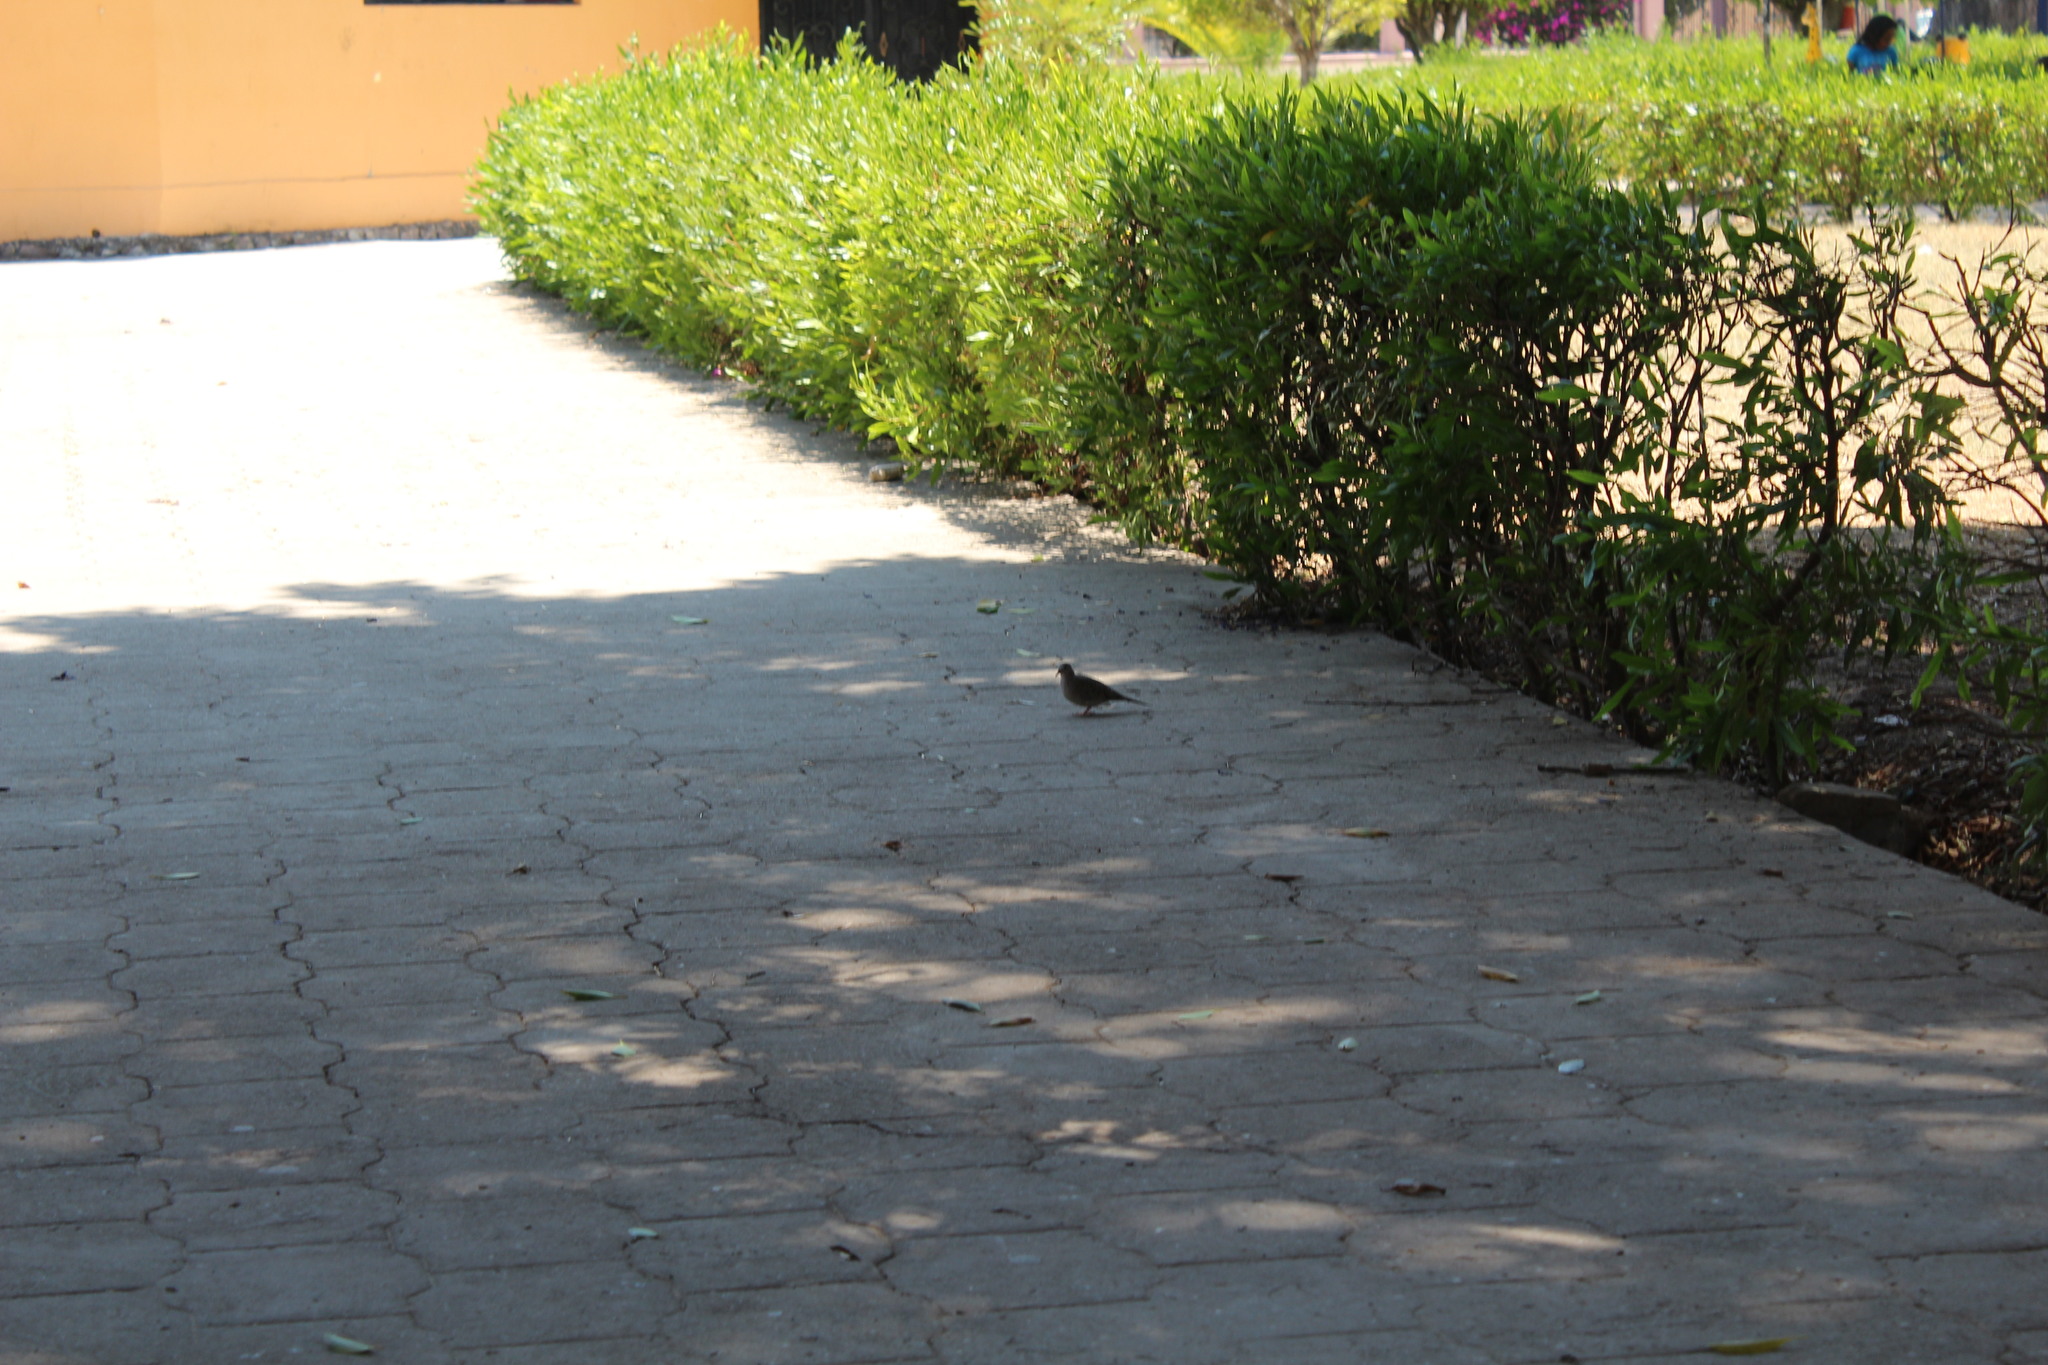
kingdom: Animalia
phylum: Chordata
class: Aves
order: Columbiformes
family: Columbidae
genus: Columbina
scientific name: Columbina inca
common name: Inca dove
